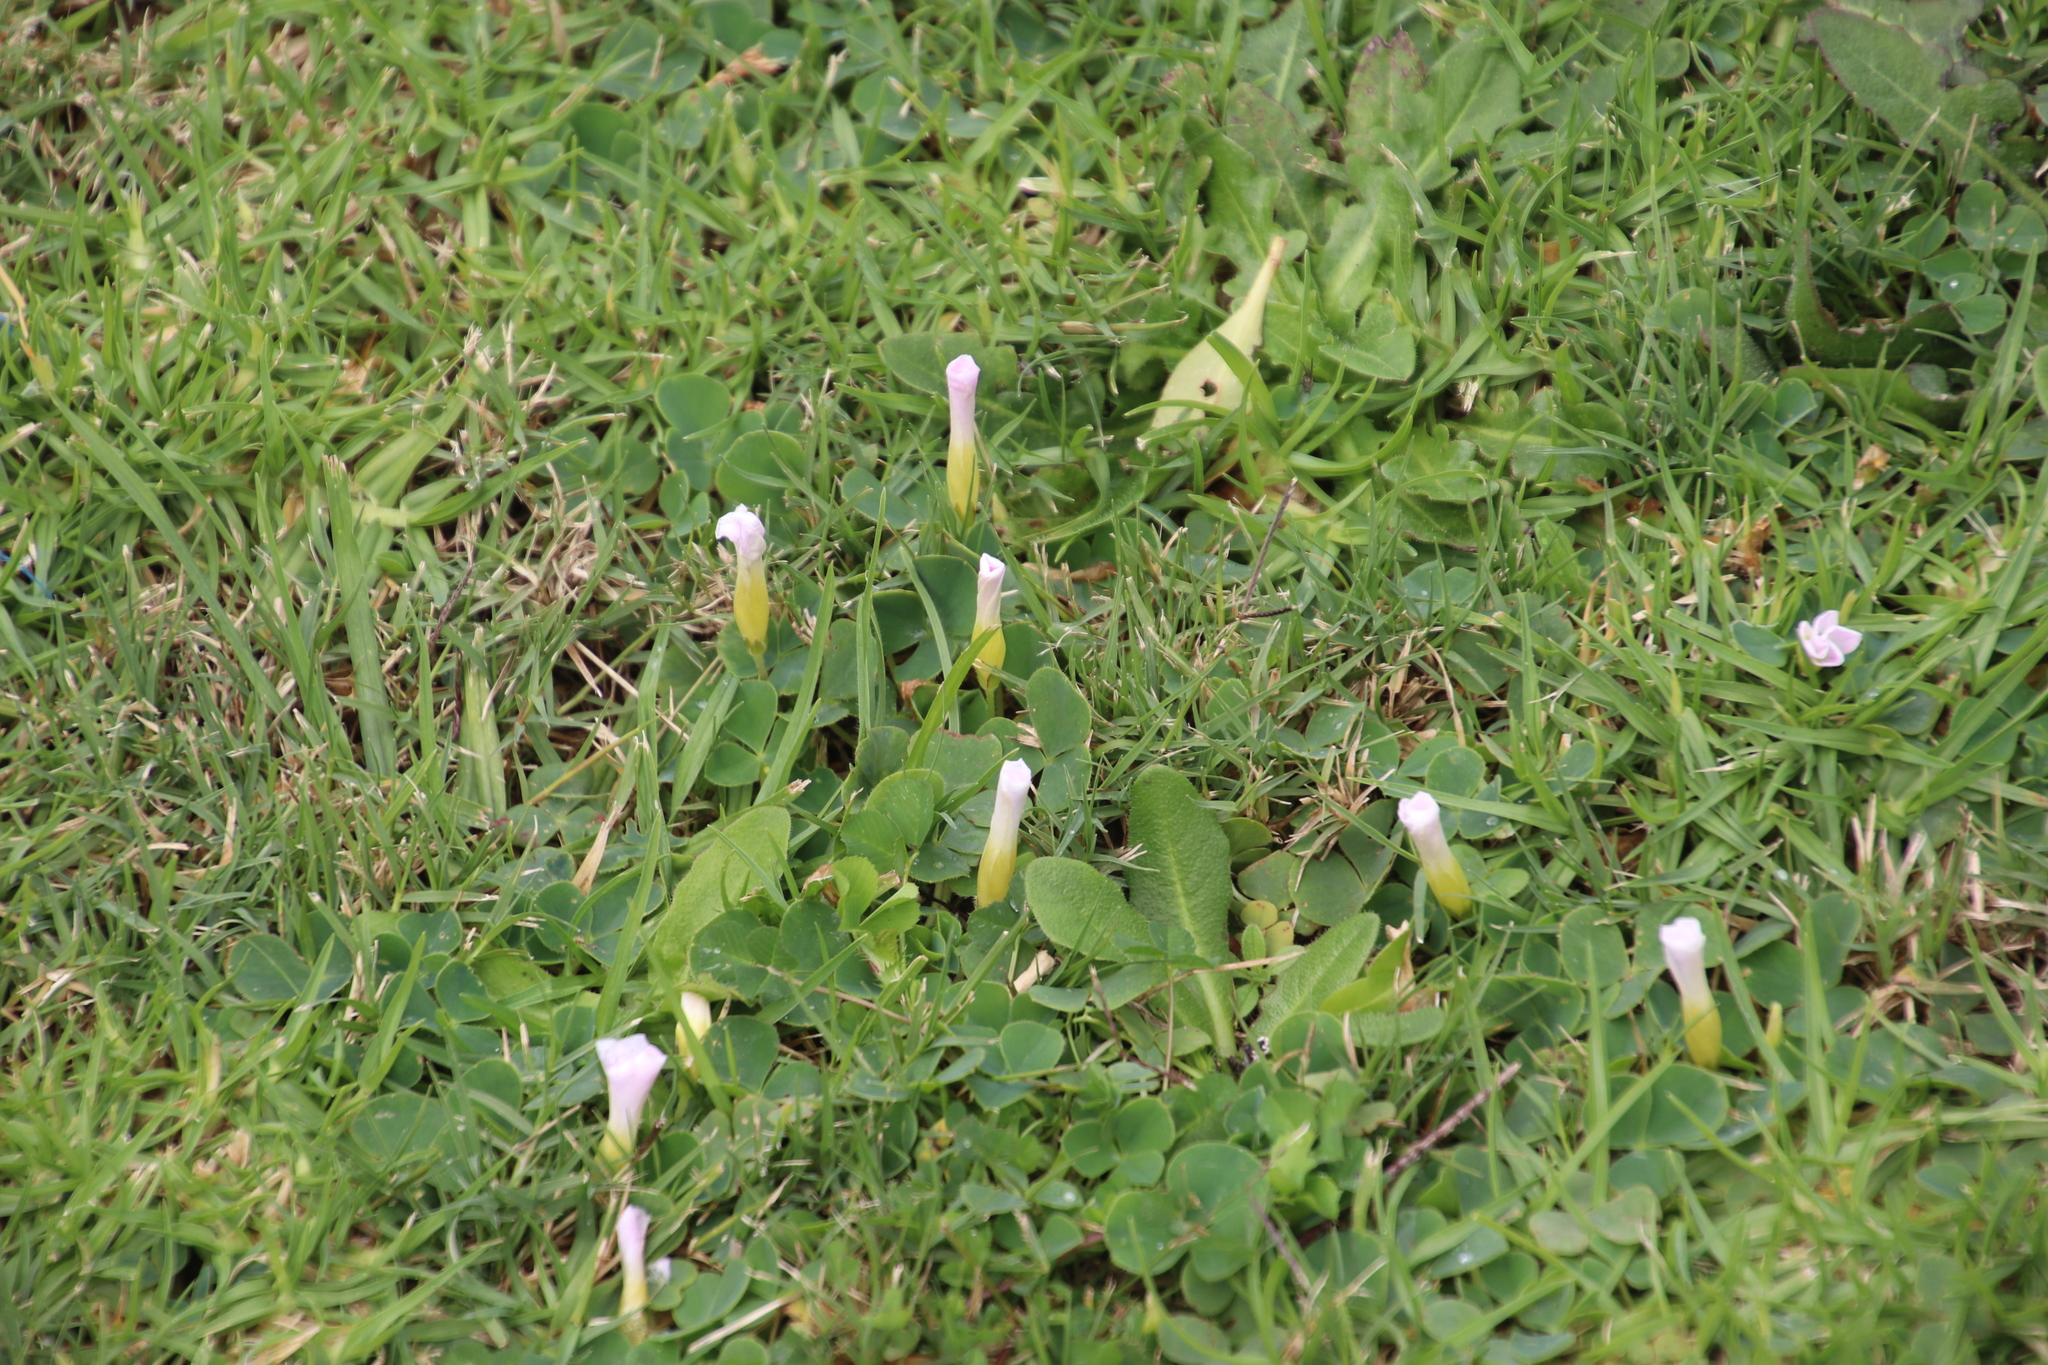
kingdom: Plantae
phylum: Tracheophyta
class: Magnoliopsida
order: Oxalidales
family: Oxalidaceae
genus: Oxalis
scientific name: Oxalis purpurea
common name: Purple woodsorrel
